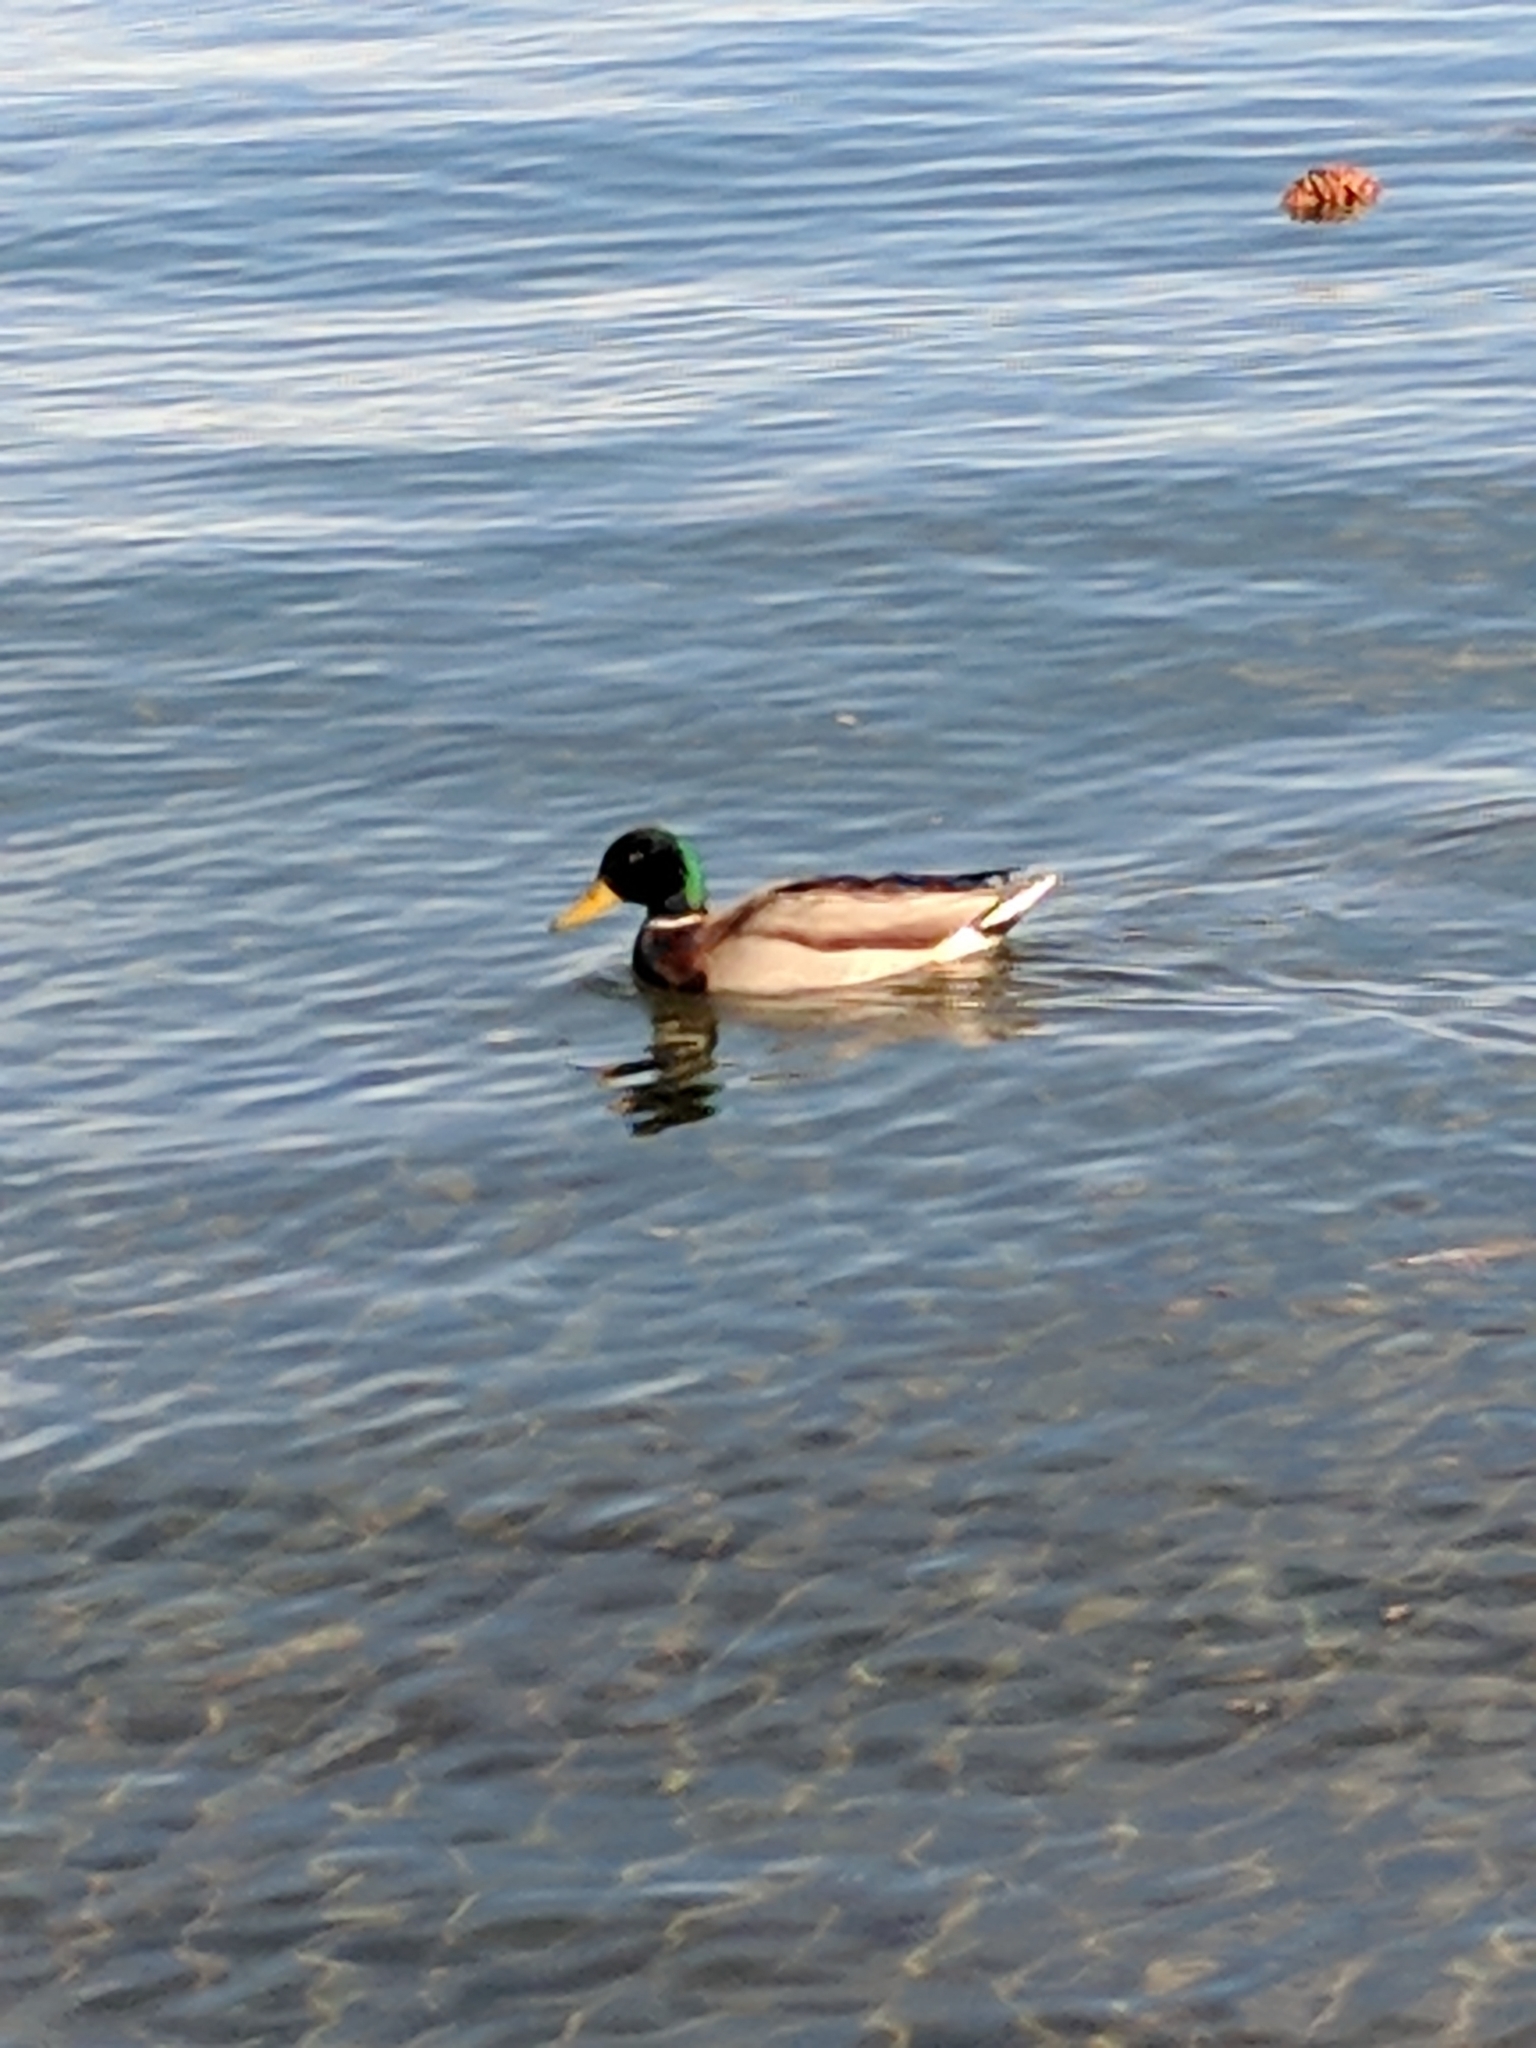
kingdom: Animalia
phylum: Chordata
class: Aves
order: Anseriformes
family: Anatidae
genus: Anas
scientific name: Anas platyrhynchos
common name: Mallard
